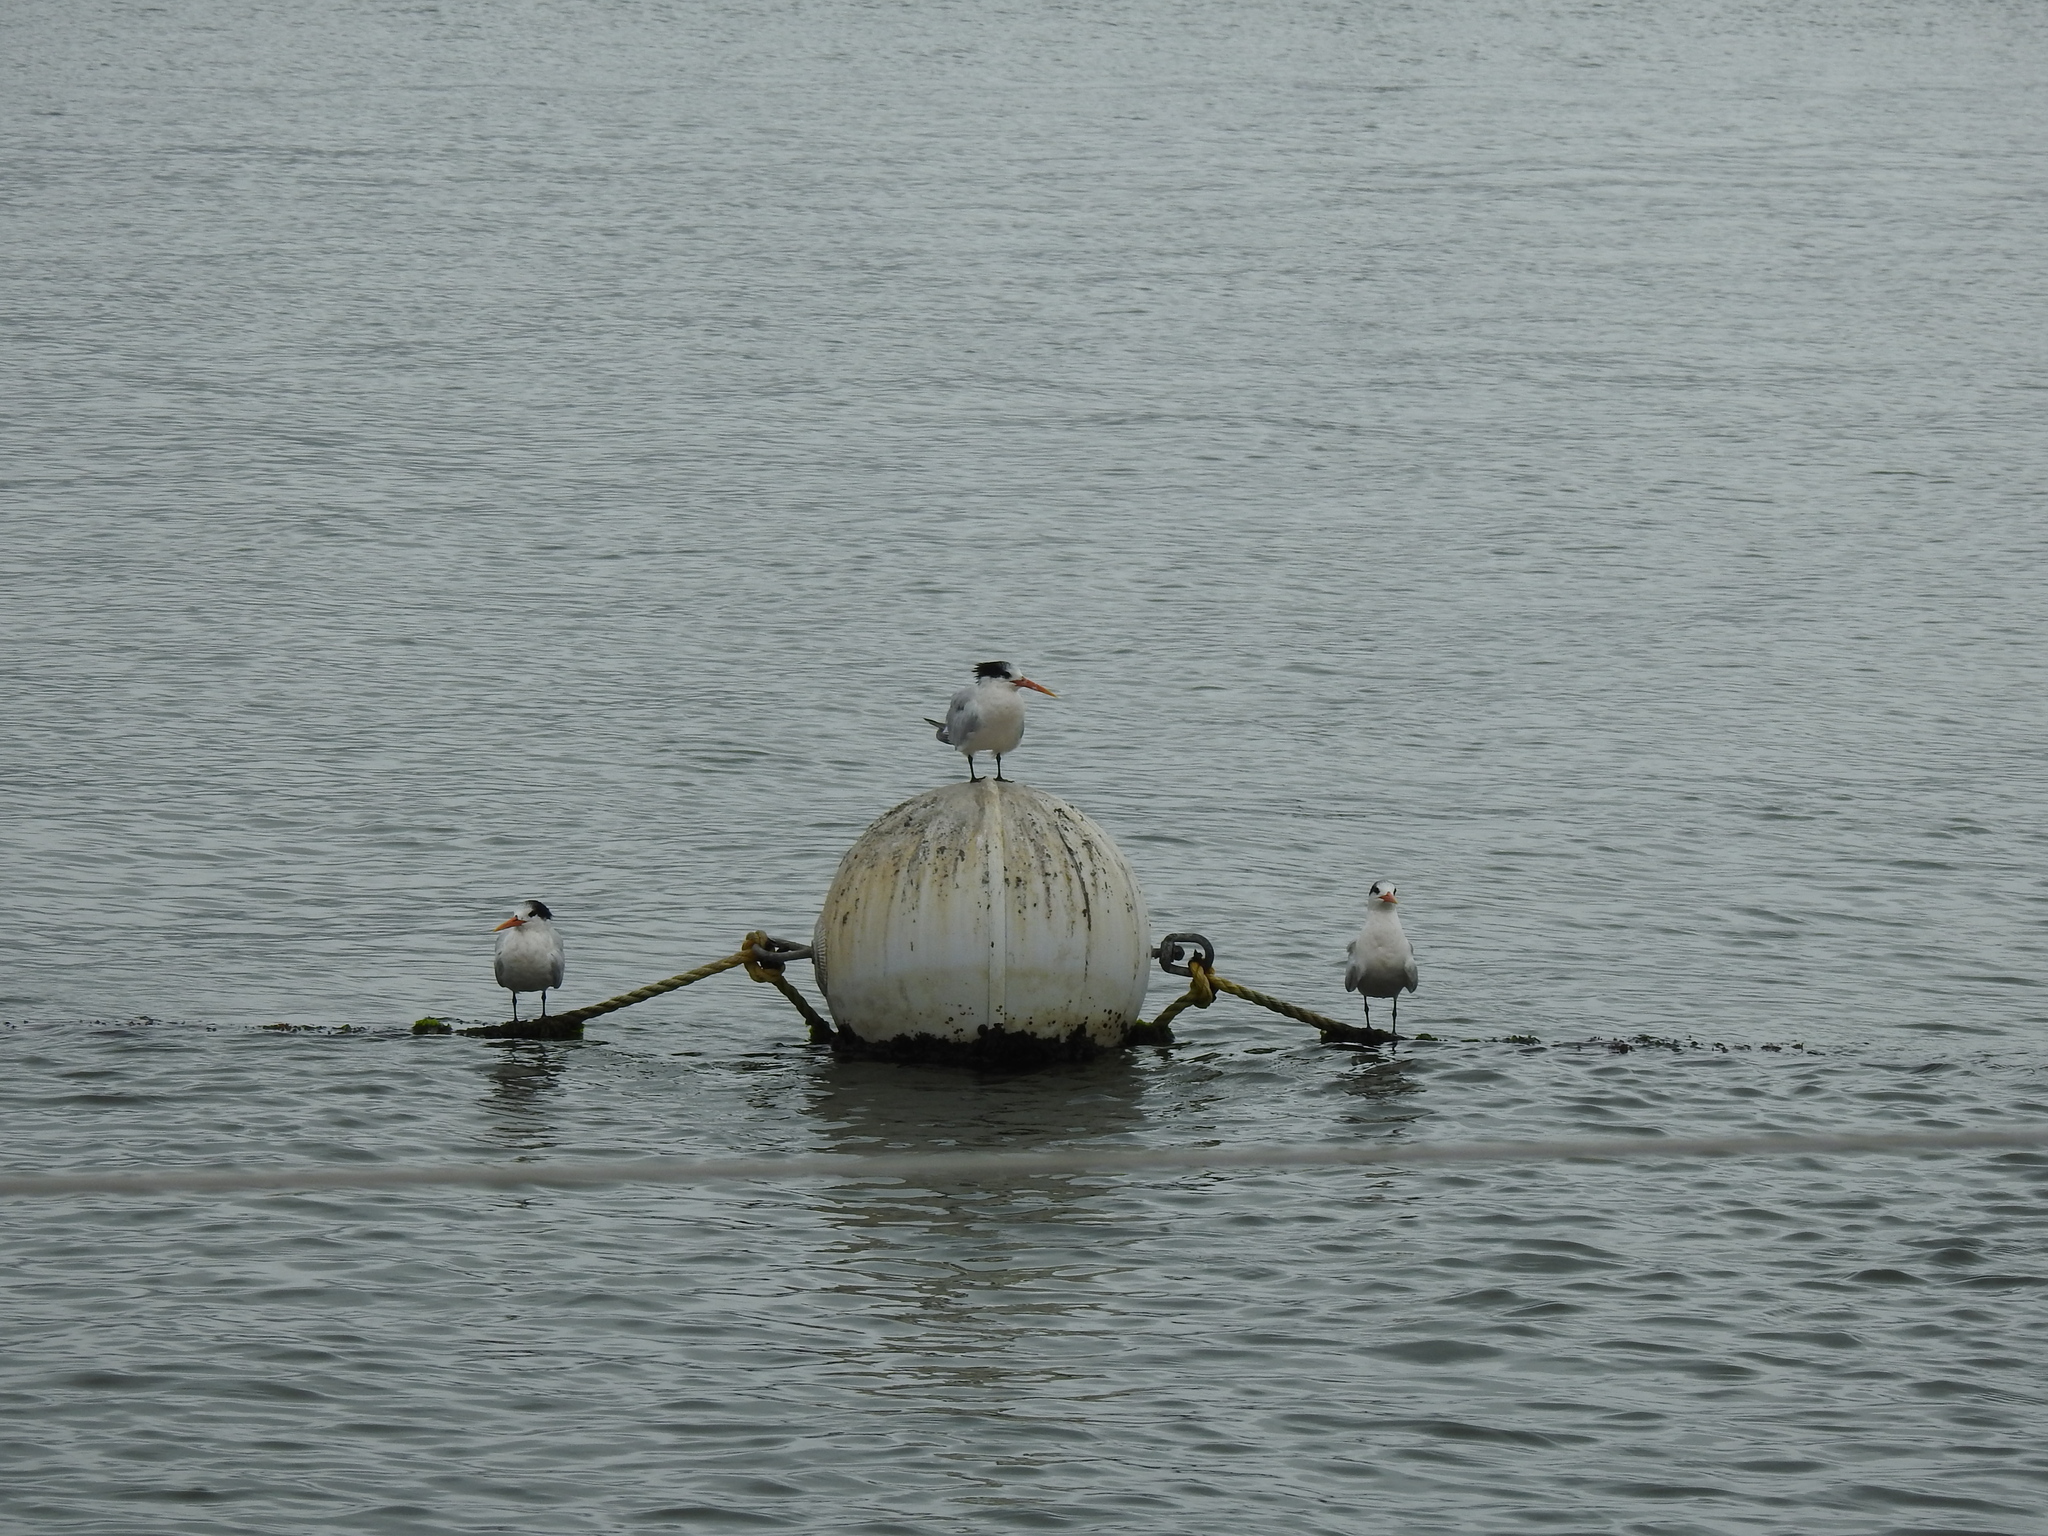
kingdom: Animalia
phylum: Chordata
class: Aves
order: Charadriiformes
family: Laridae
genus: Thalasseus
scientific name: Thalasseus elegans
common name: Elegant tern
